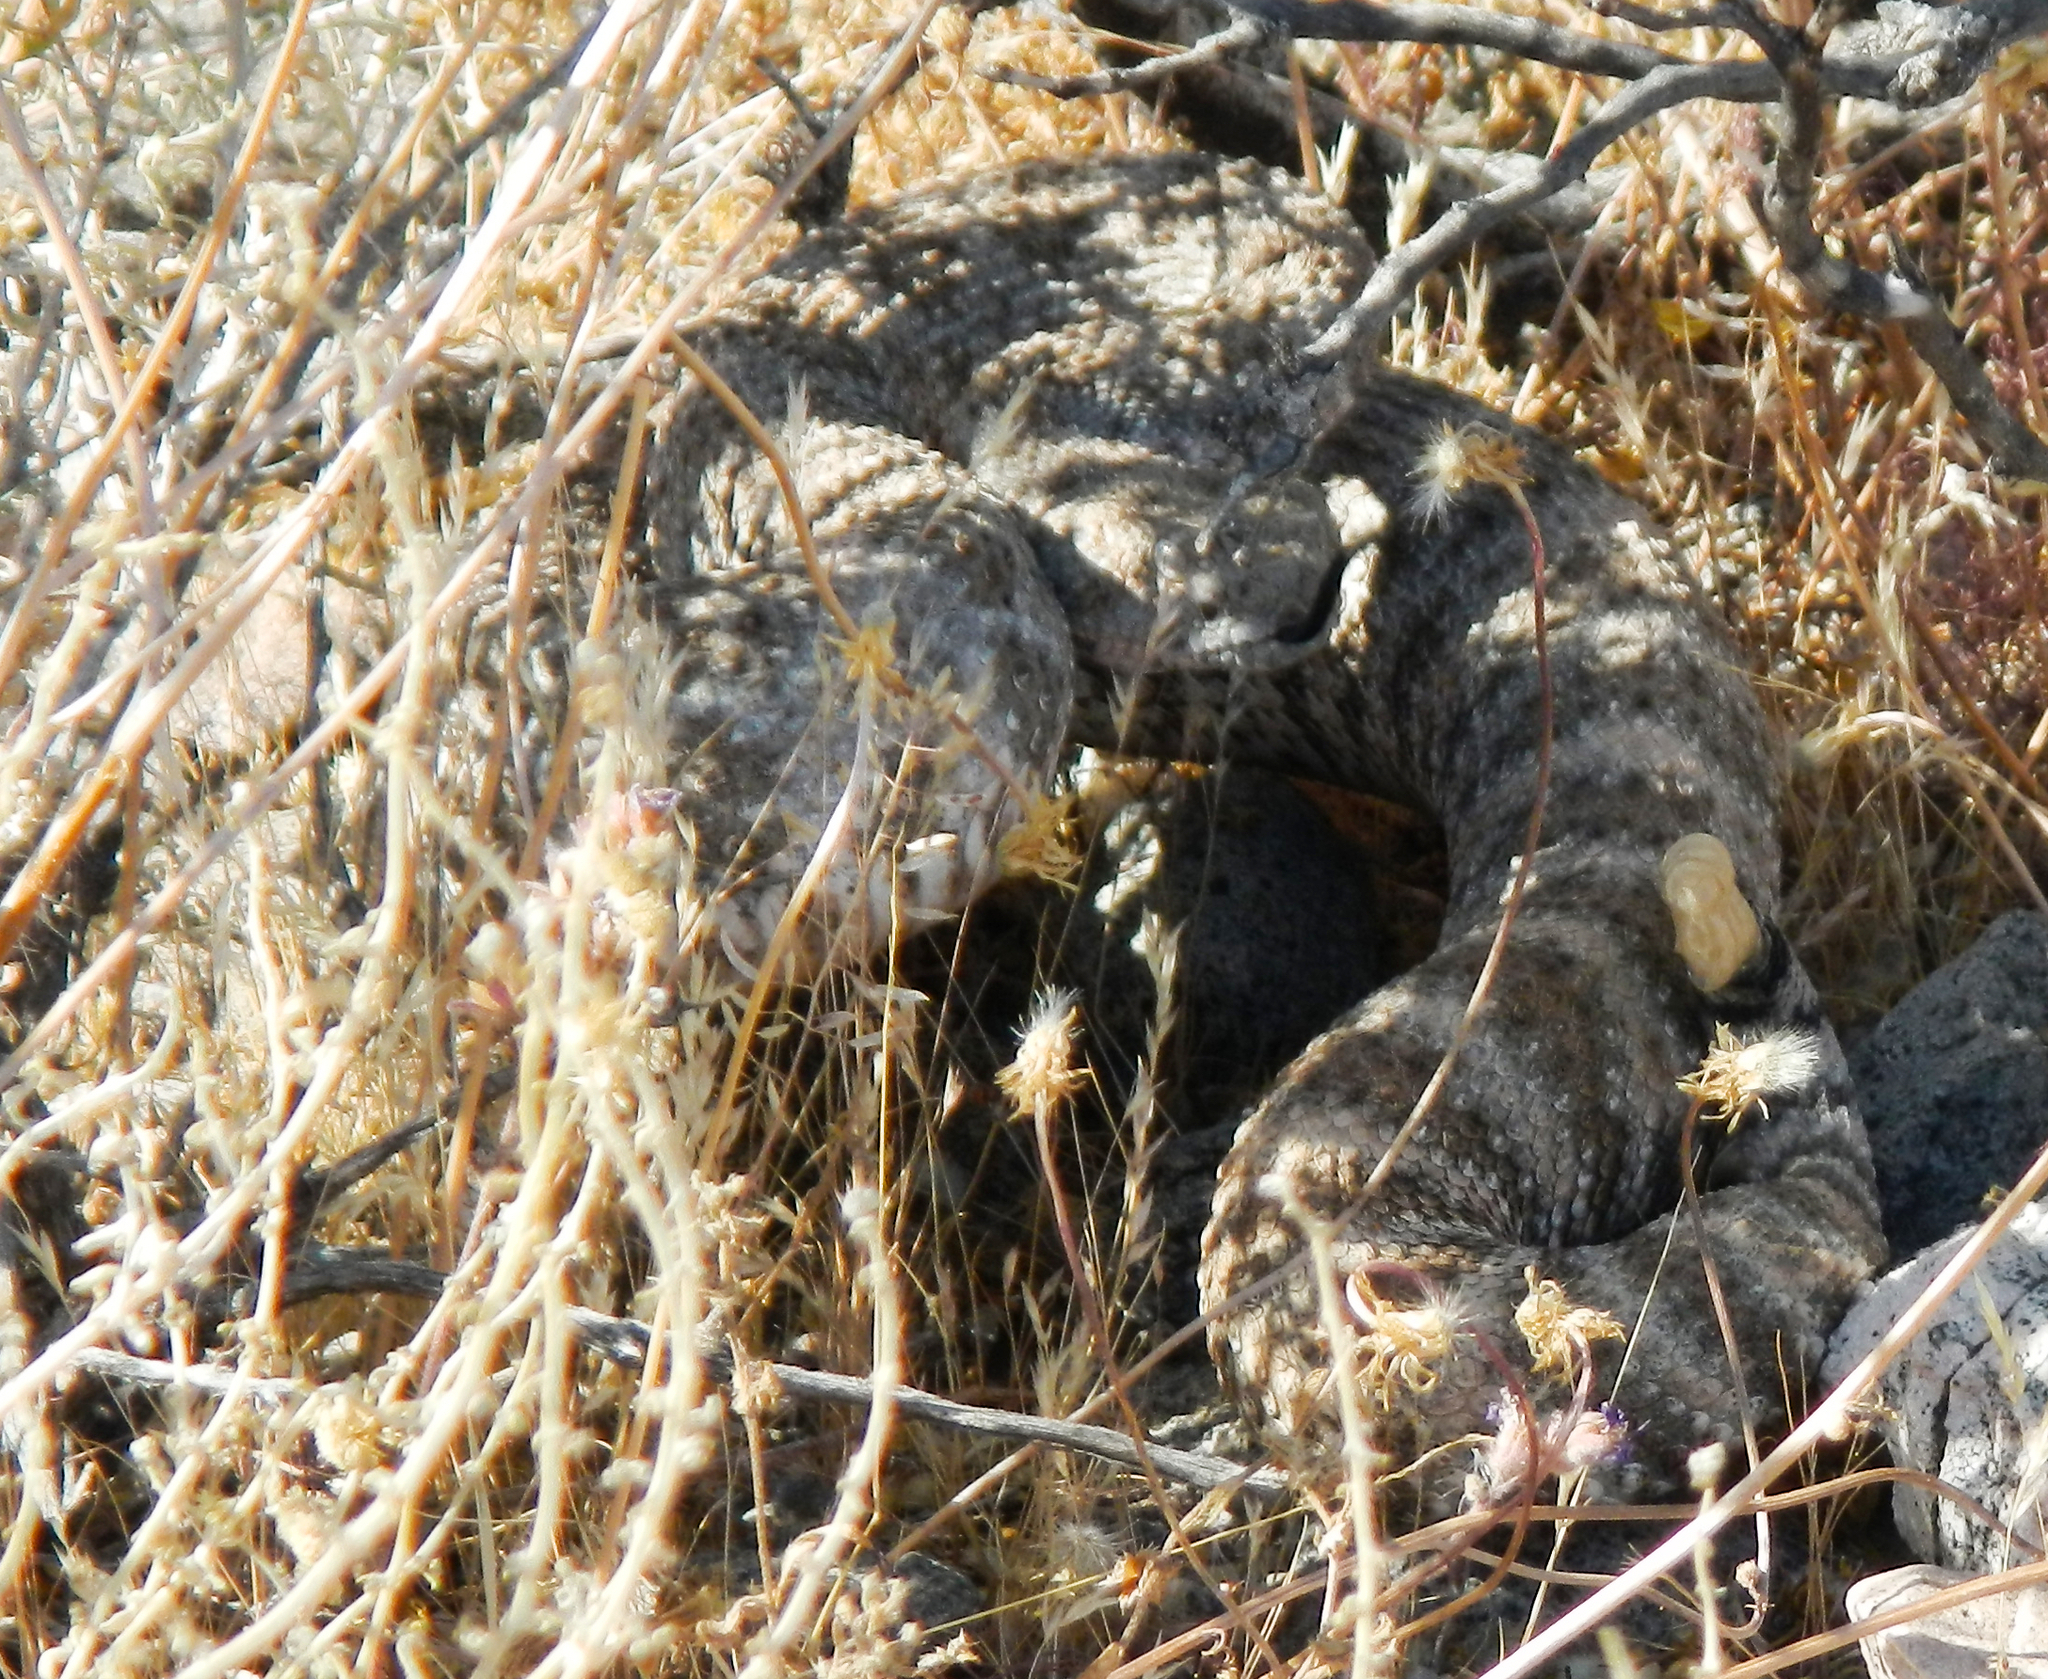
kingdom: Animalia
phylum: Chordata
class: Squamata
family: Viperidae
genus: Crotalus
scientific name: Crotalus pyrrhus
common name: Southwestern speckled rattlesnake
